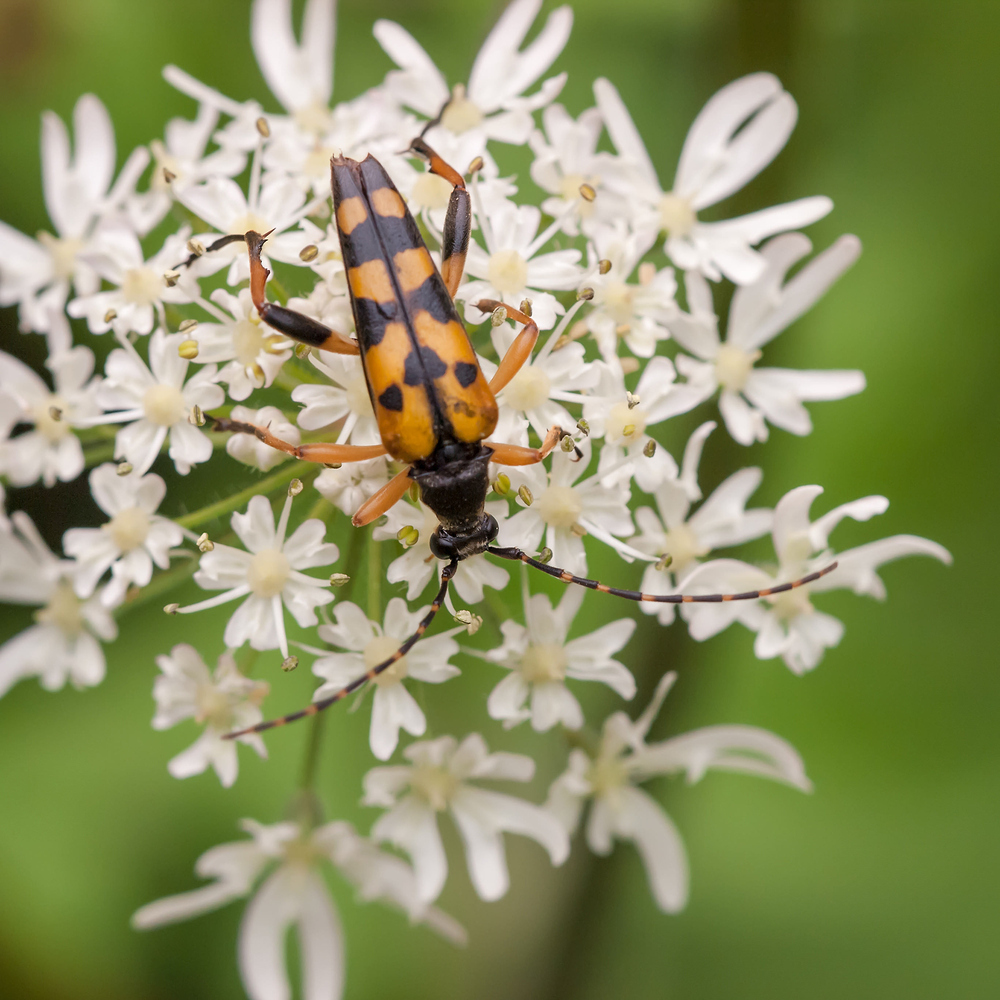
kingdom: Animalia
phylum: Arthropoda
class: Insecta
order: Coleoptera
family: Cerambycidae
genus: Rutpela
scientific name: Rutpela maculata
